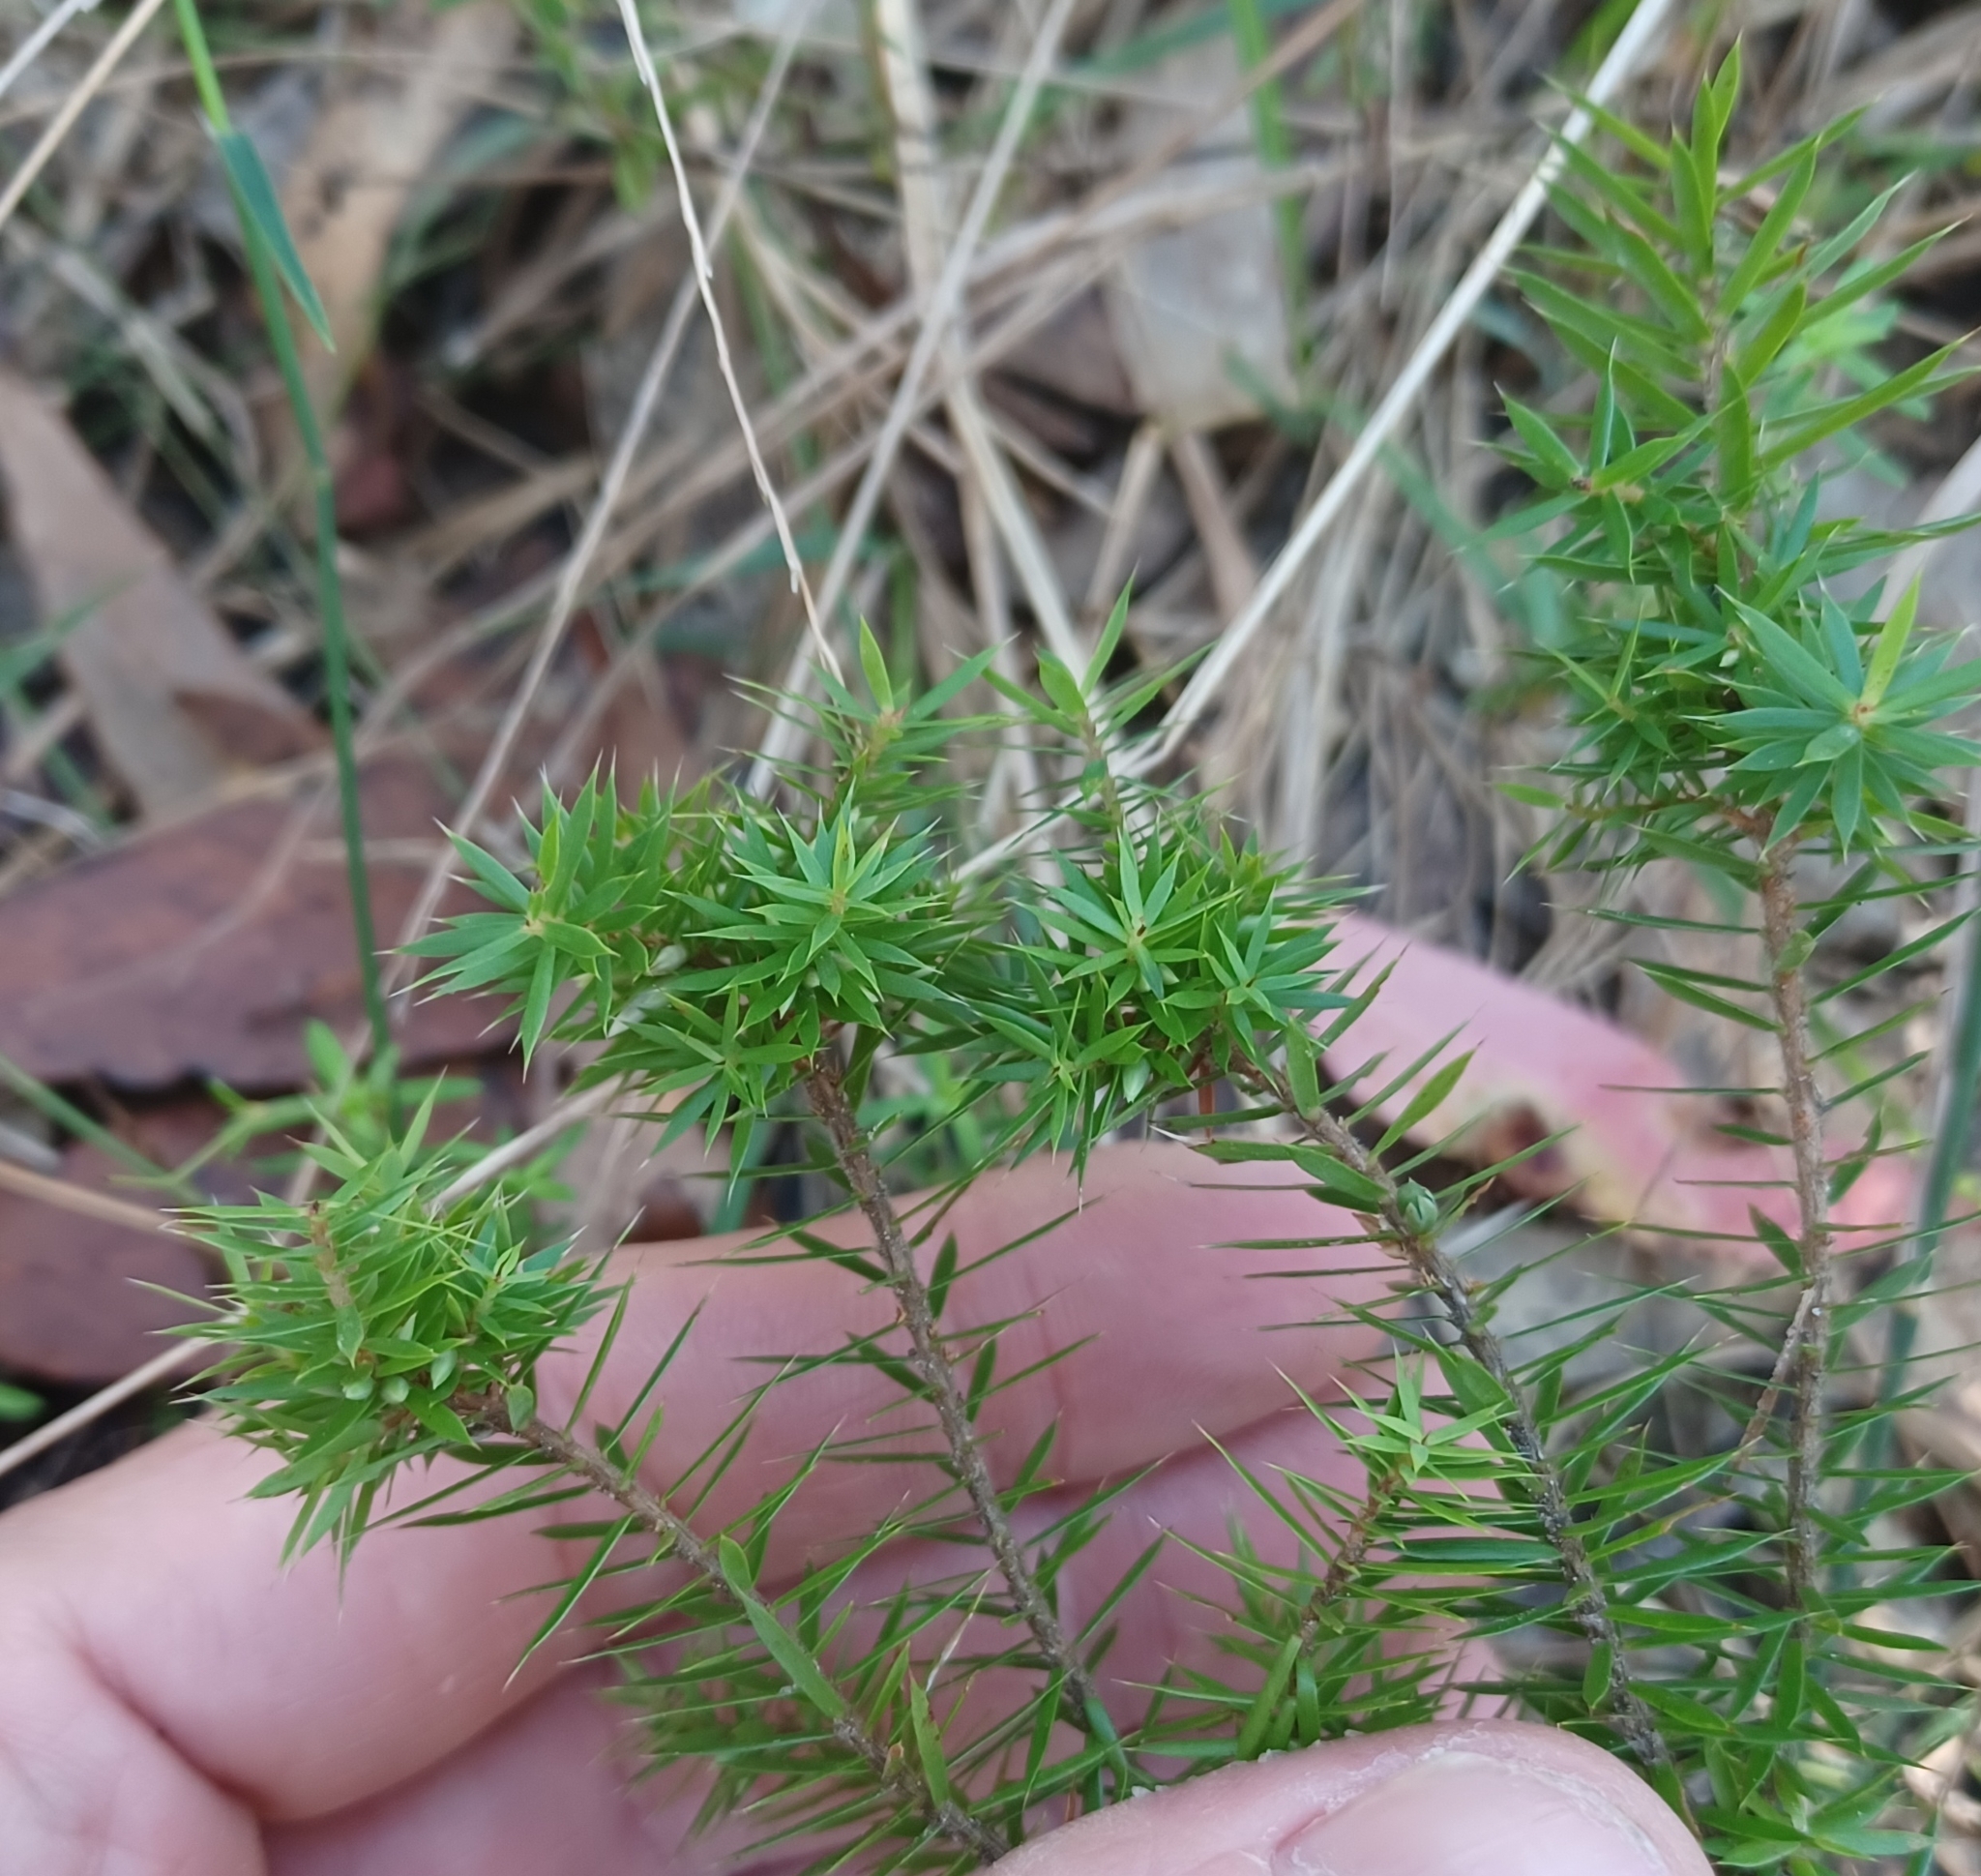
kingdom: Plantae
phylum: Tracheophyta
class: Magnoliopsida
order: Ericales
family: Ericaceae
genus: Styphelia
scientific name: Styphelia sieberi
